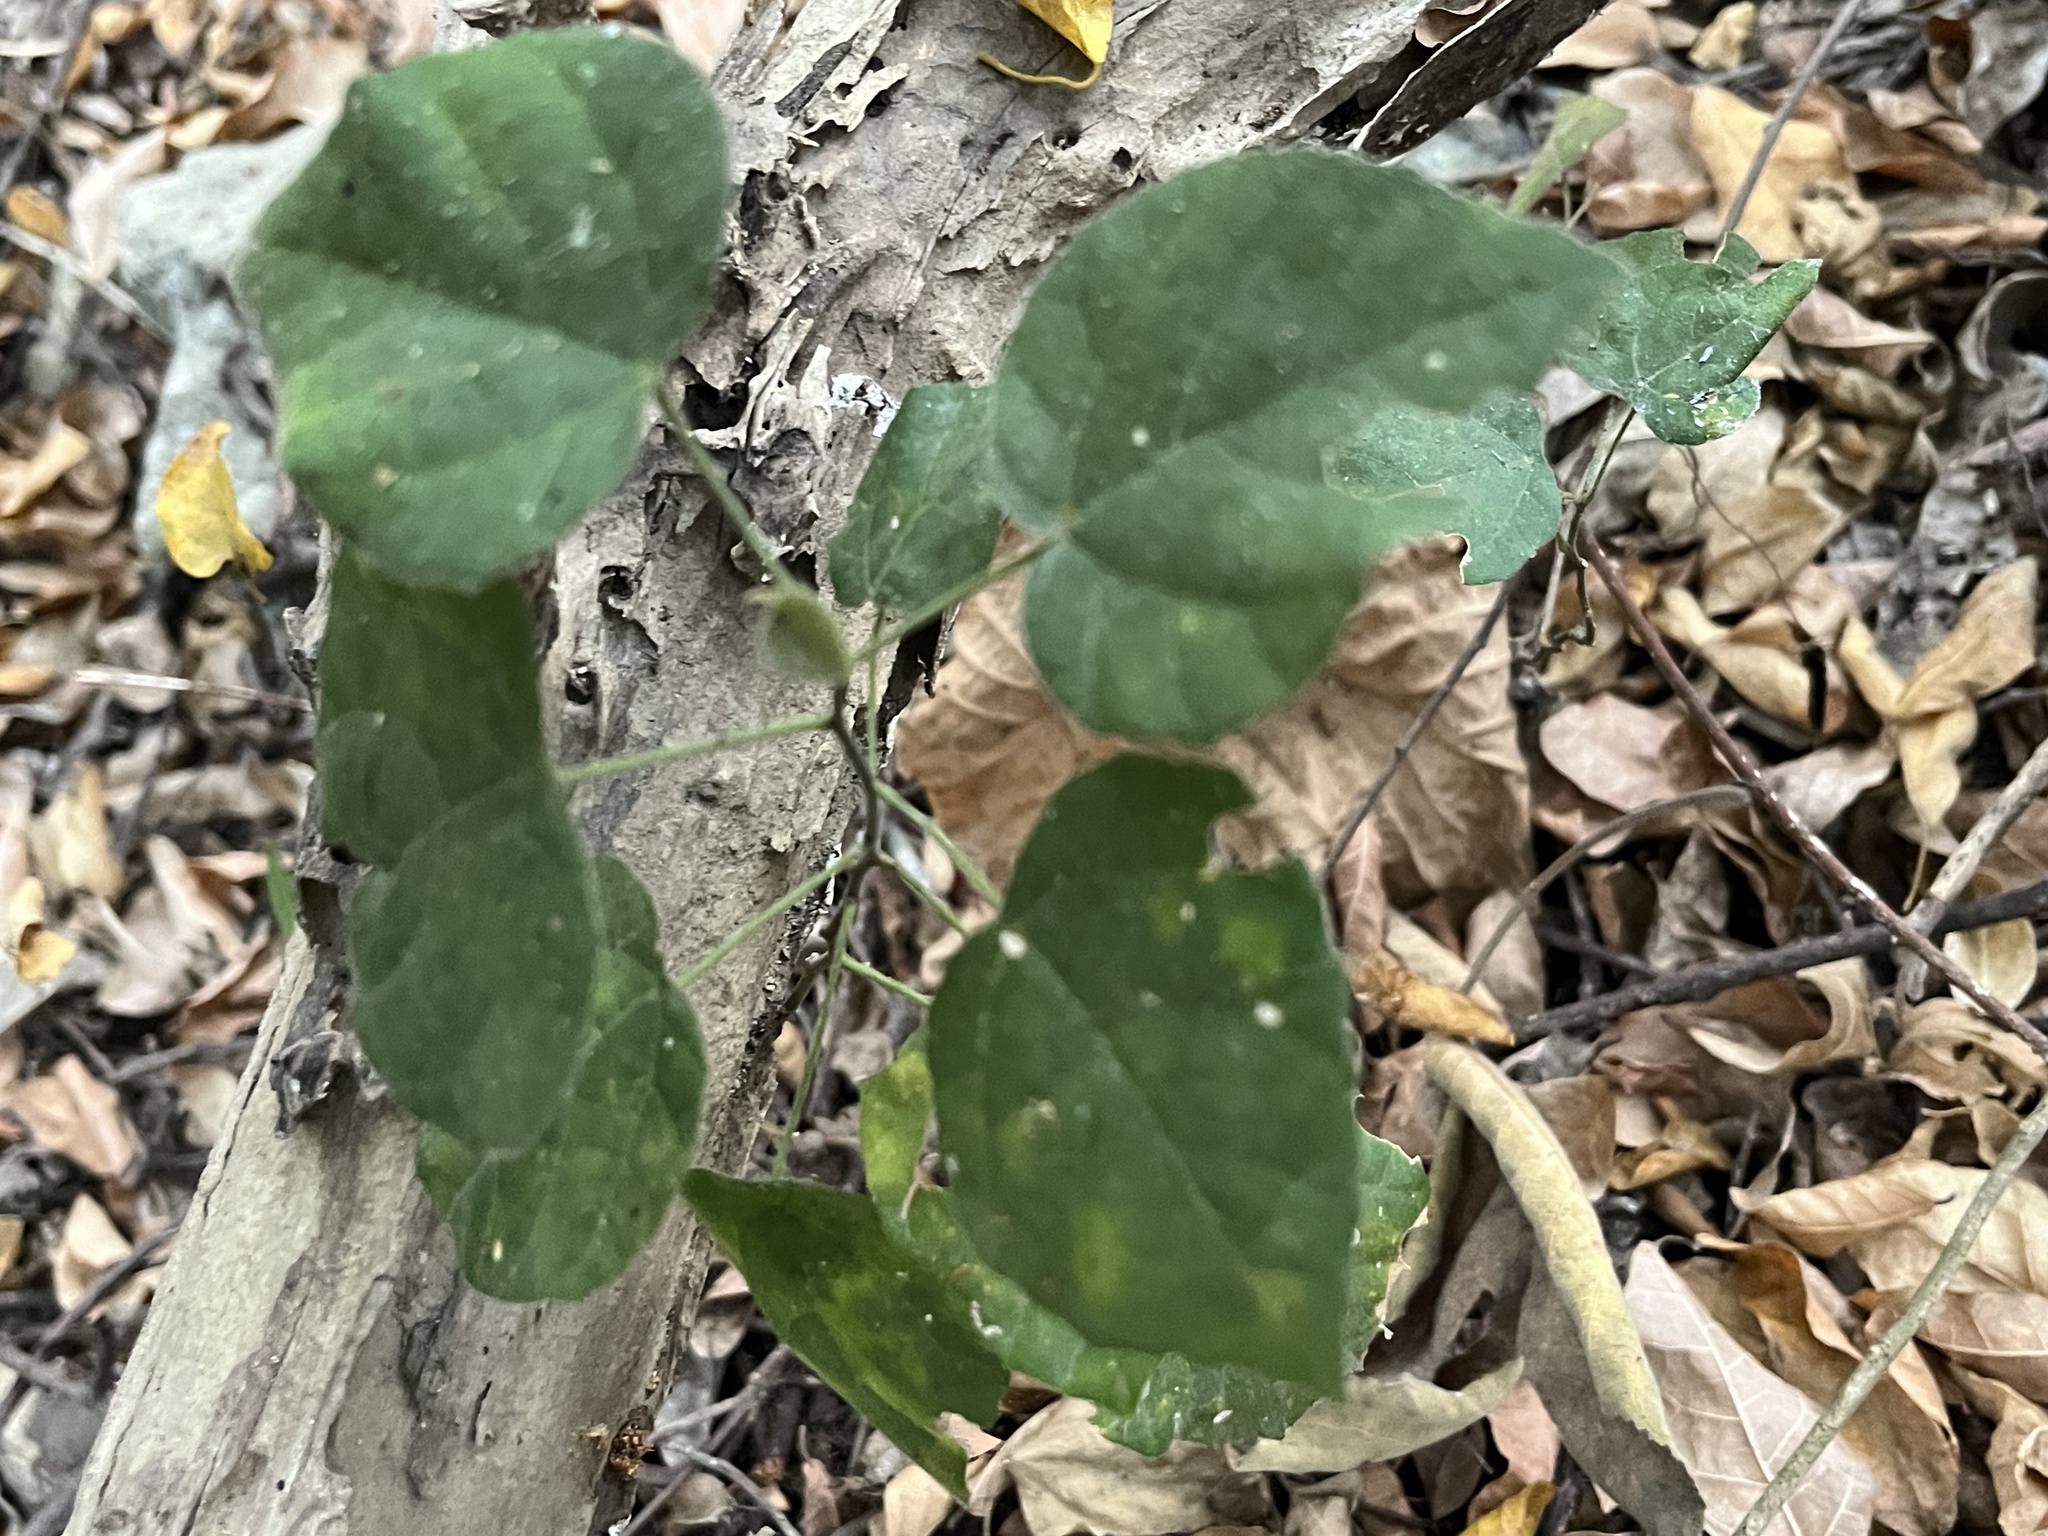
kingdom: Plantae
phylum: Tracheophyta
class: Magnoliopsida
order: Malpighiales
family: Euphorbiaceae
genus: Mallotus
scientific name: Mallotus repandus
